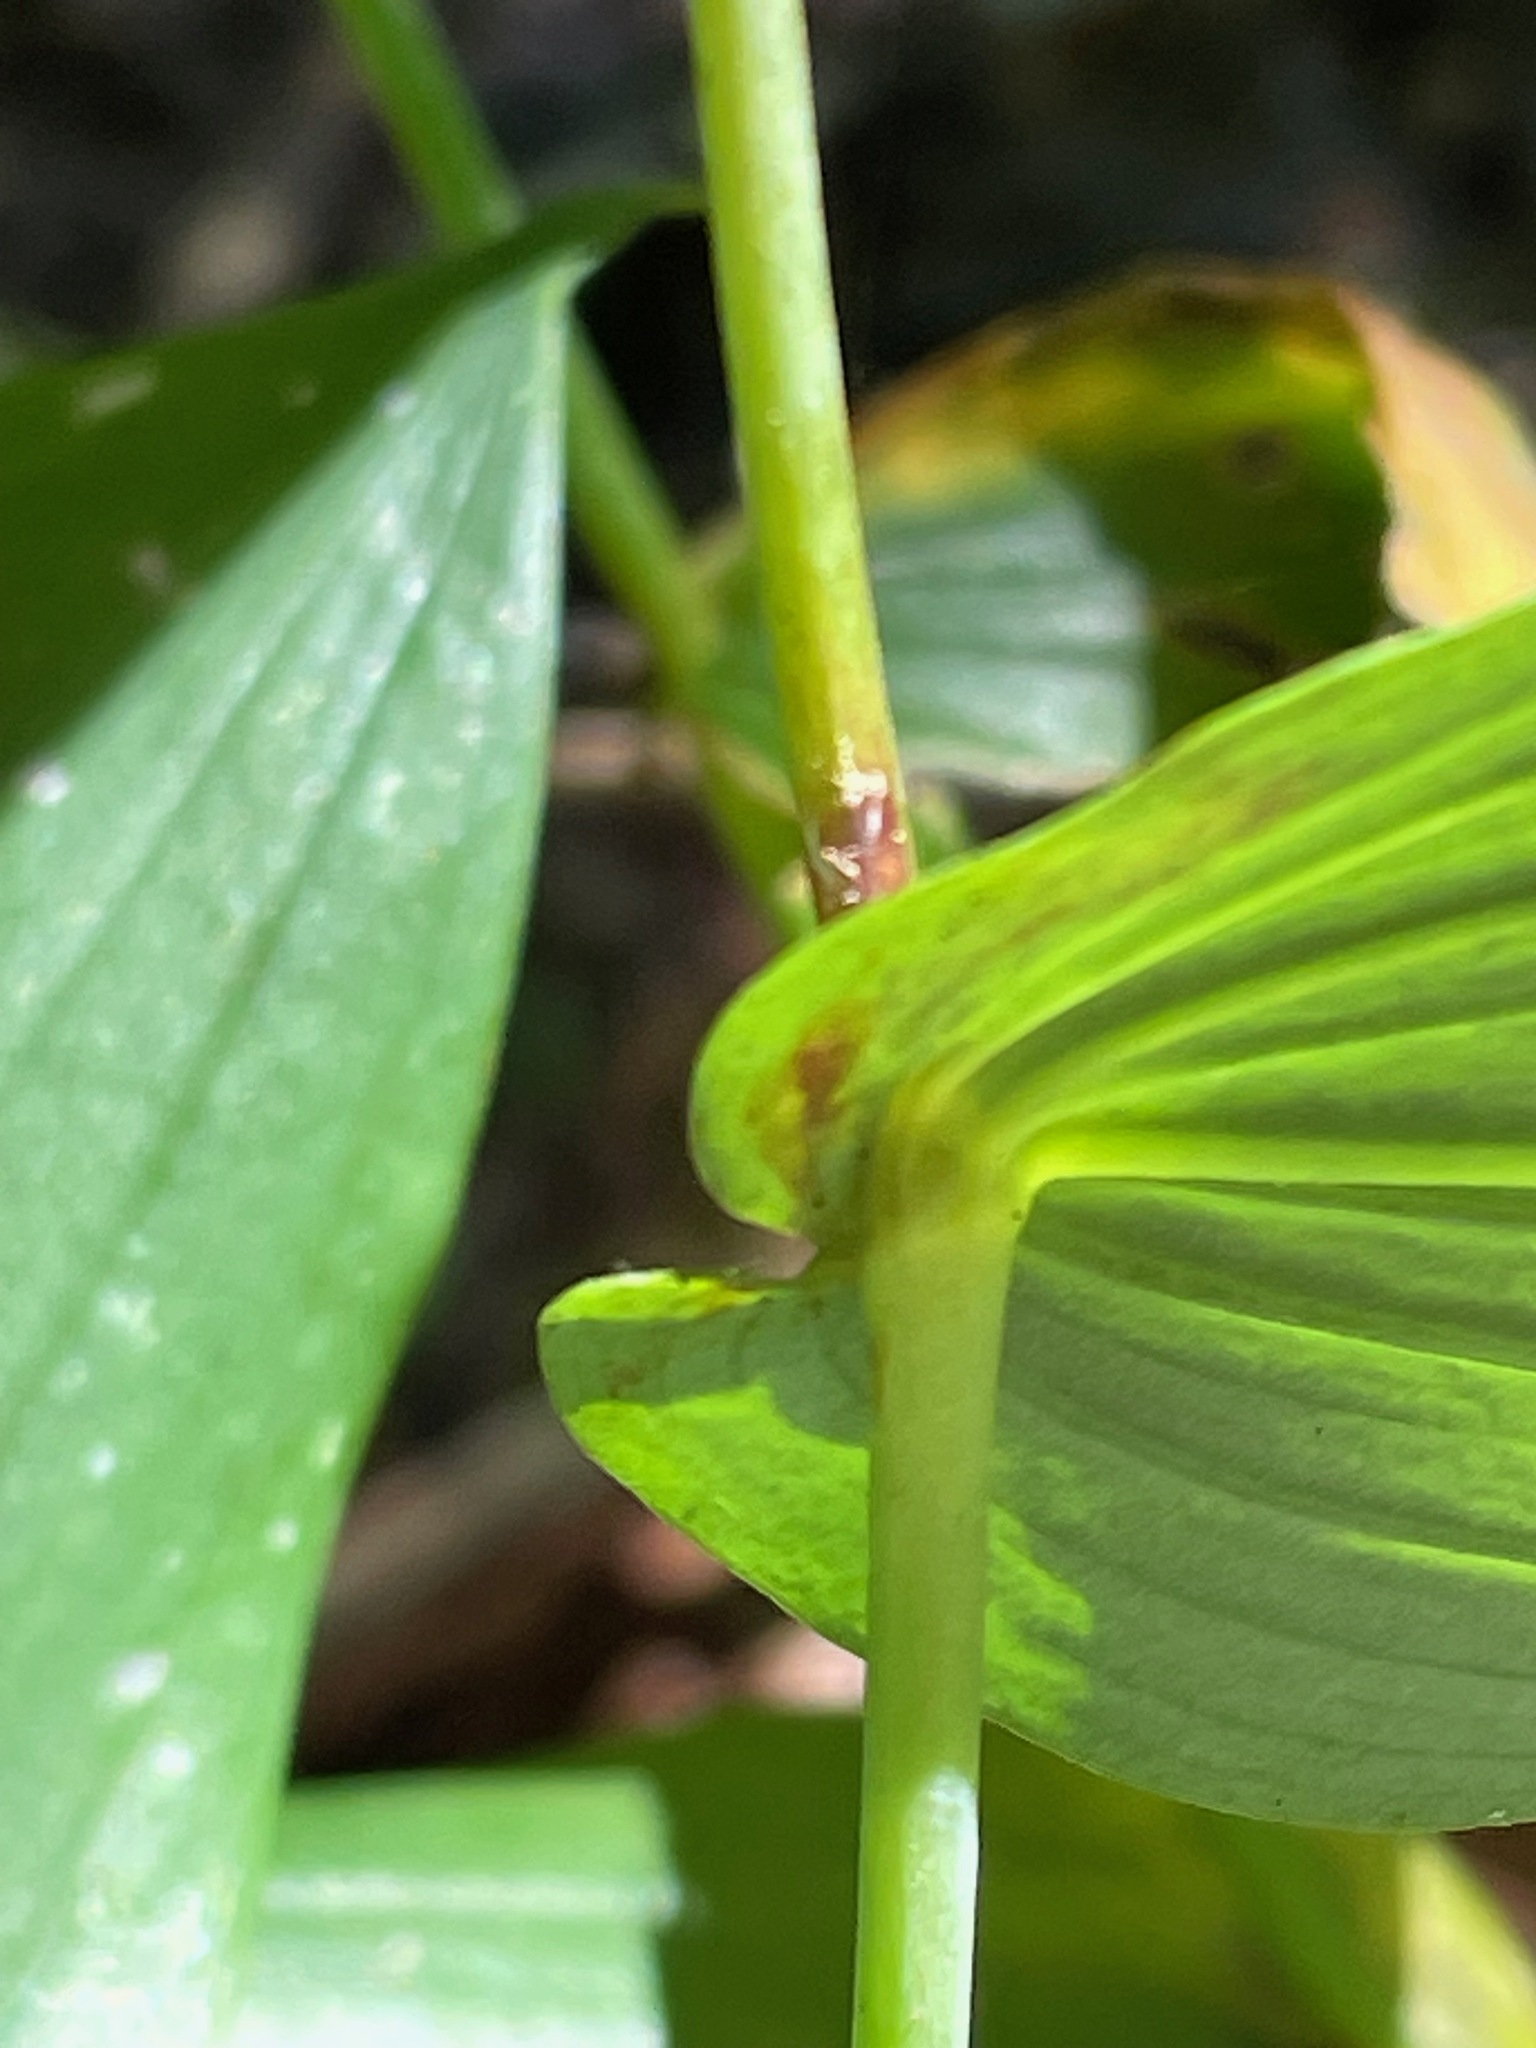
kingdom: Plantae
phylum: Tracheophyta
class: Liliopsida
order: Liliales
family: Liliaceae
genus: Streptopus
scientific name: Streptopus amplexifolius
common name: Clasp twisted stalk
